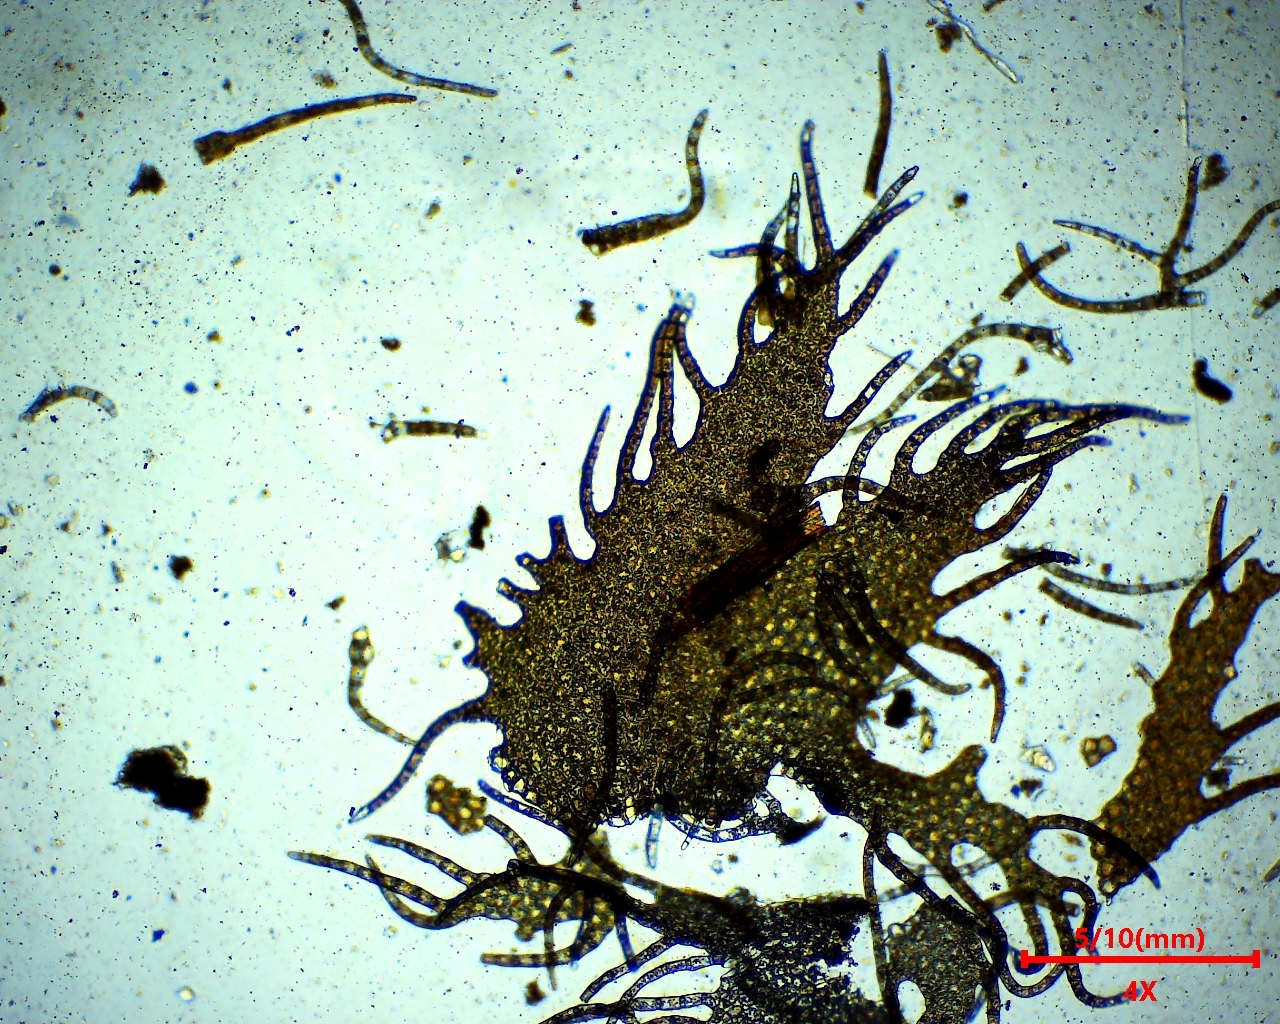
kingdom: Plantae
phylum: Marchantiophyta
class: Jungermanniopsida
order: Ptilidiales
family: Ptilidiaceae
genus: Ptilidium
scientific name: Ptilidium ciliare
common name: Ciliate fringewort
